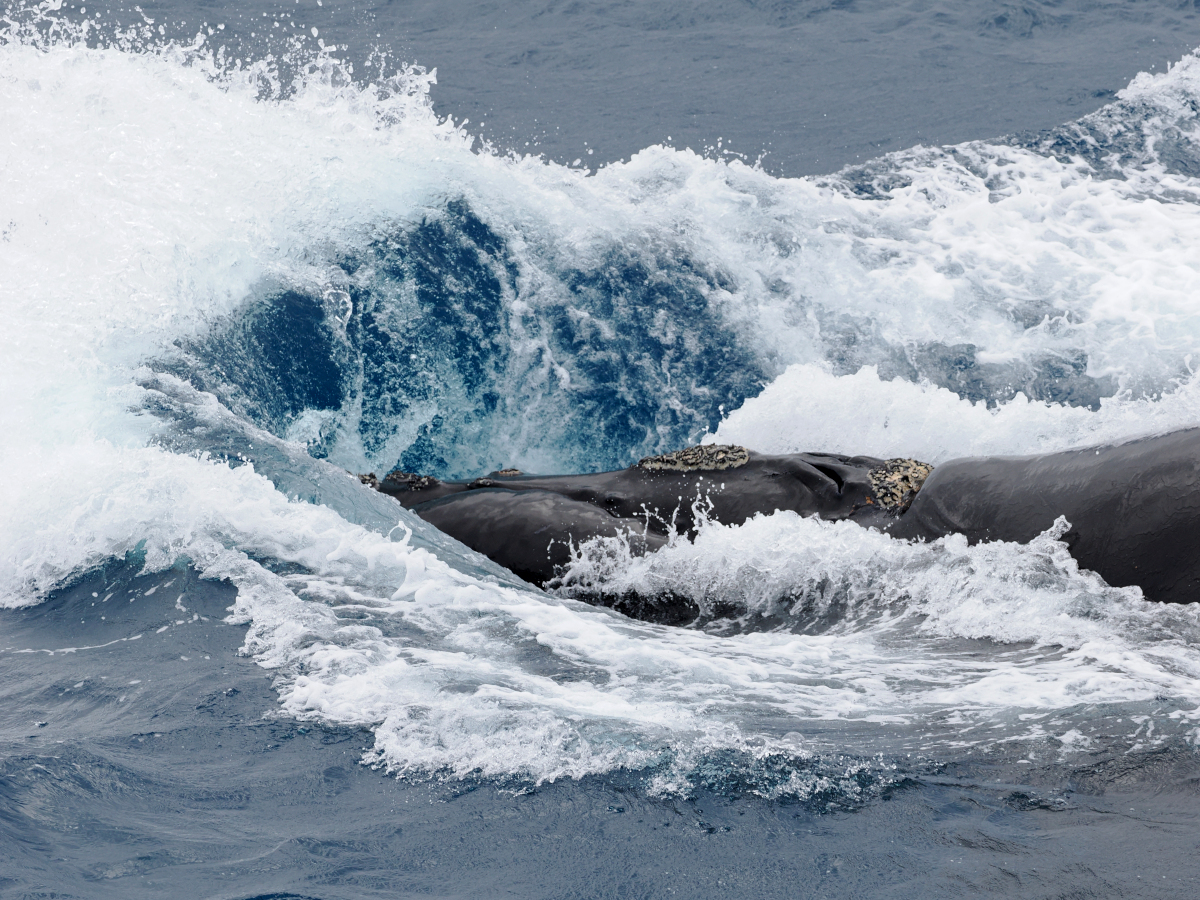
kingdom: Animalia
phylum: Chordata
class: Mammalia
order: Cetacea
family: Balaenidae
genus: Eubalaena
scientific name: Eubalaena australis
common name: Southern right whale
